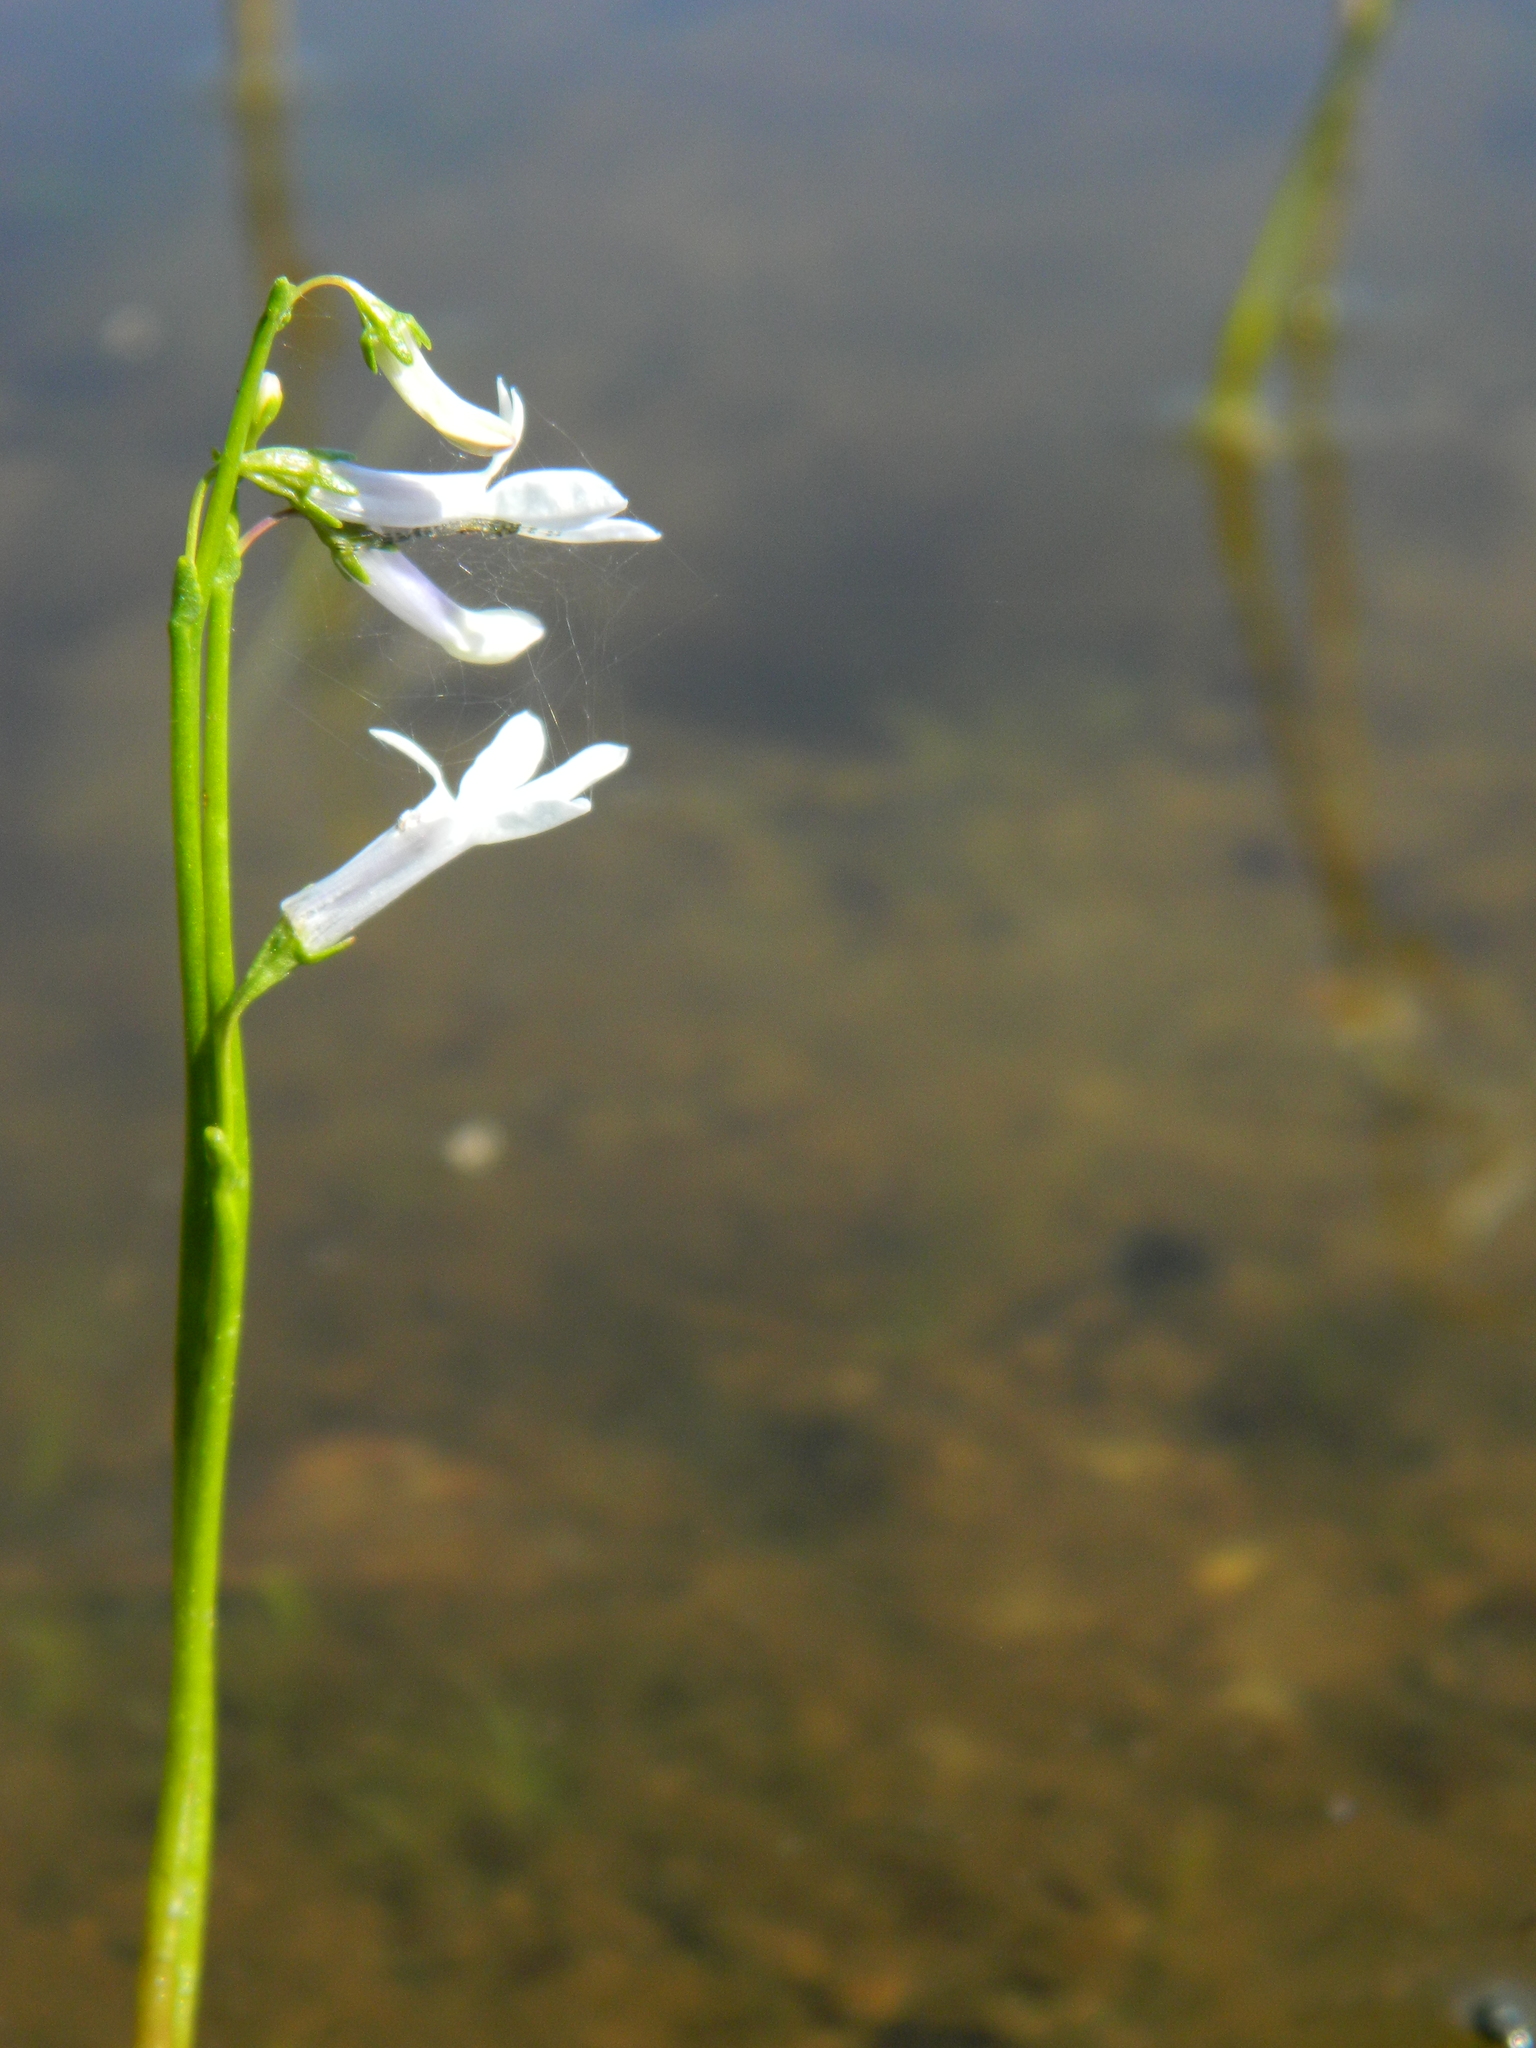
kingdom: Plantae
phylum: Tracheophyta
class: Magnoliopsida
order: Asterales
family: Campanulaceae
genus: Lobelia
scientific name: Lobelia dortmanna
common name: Water lobelia
